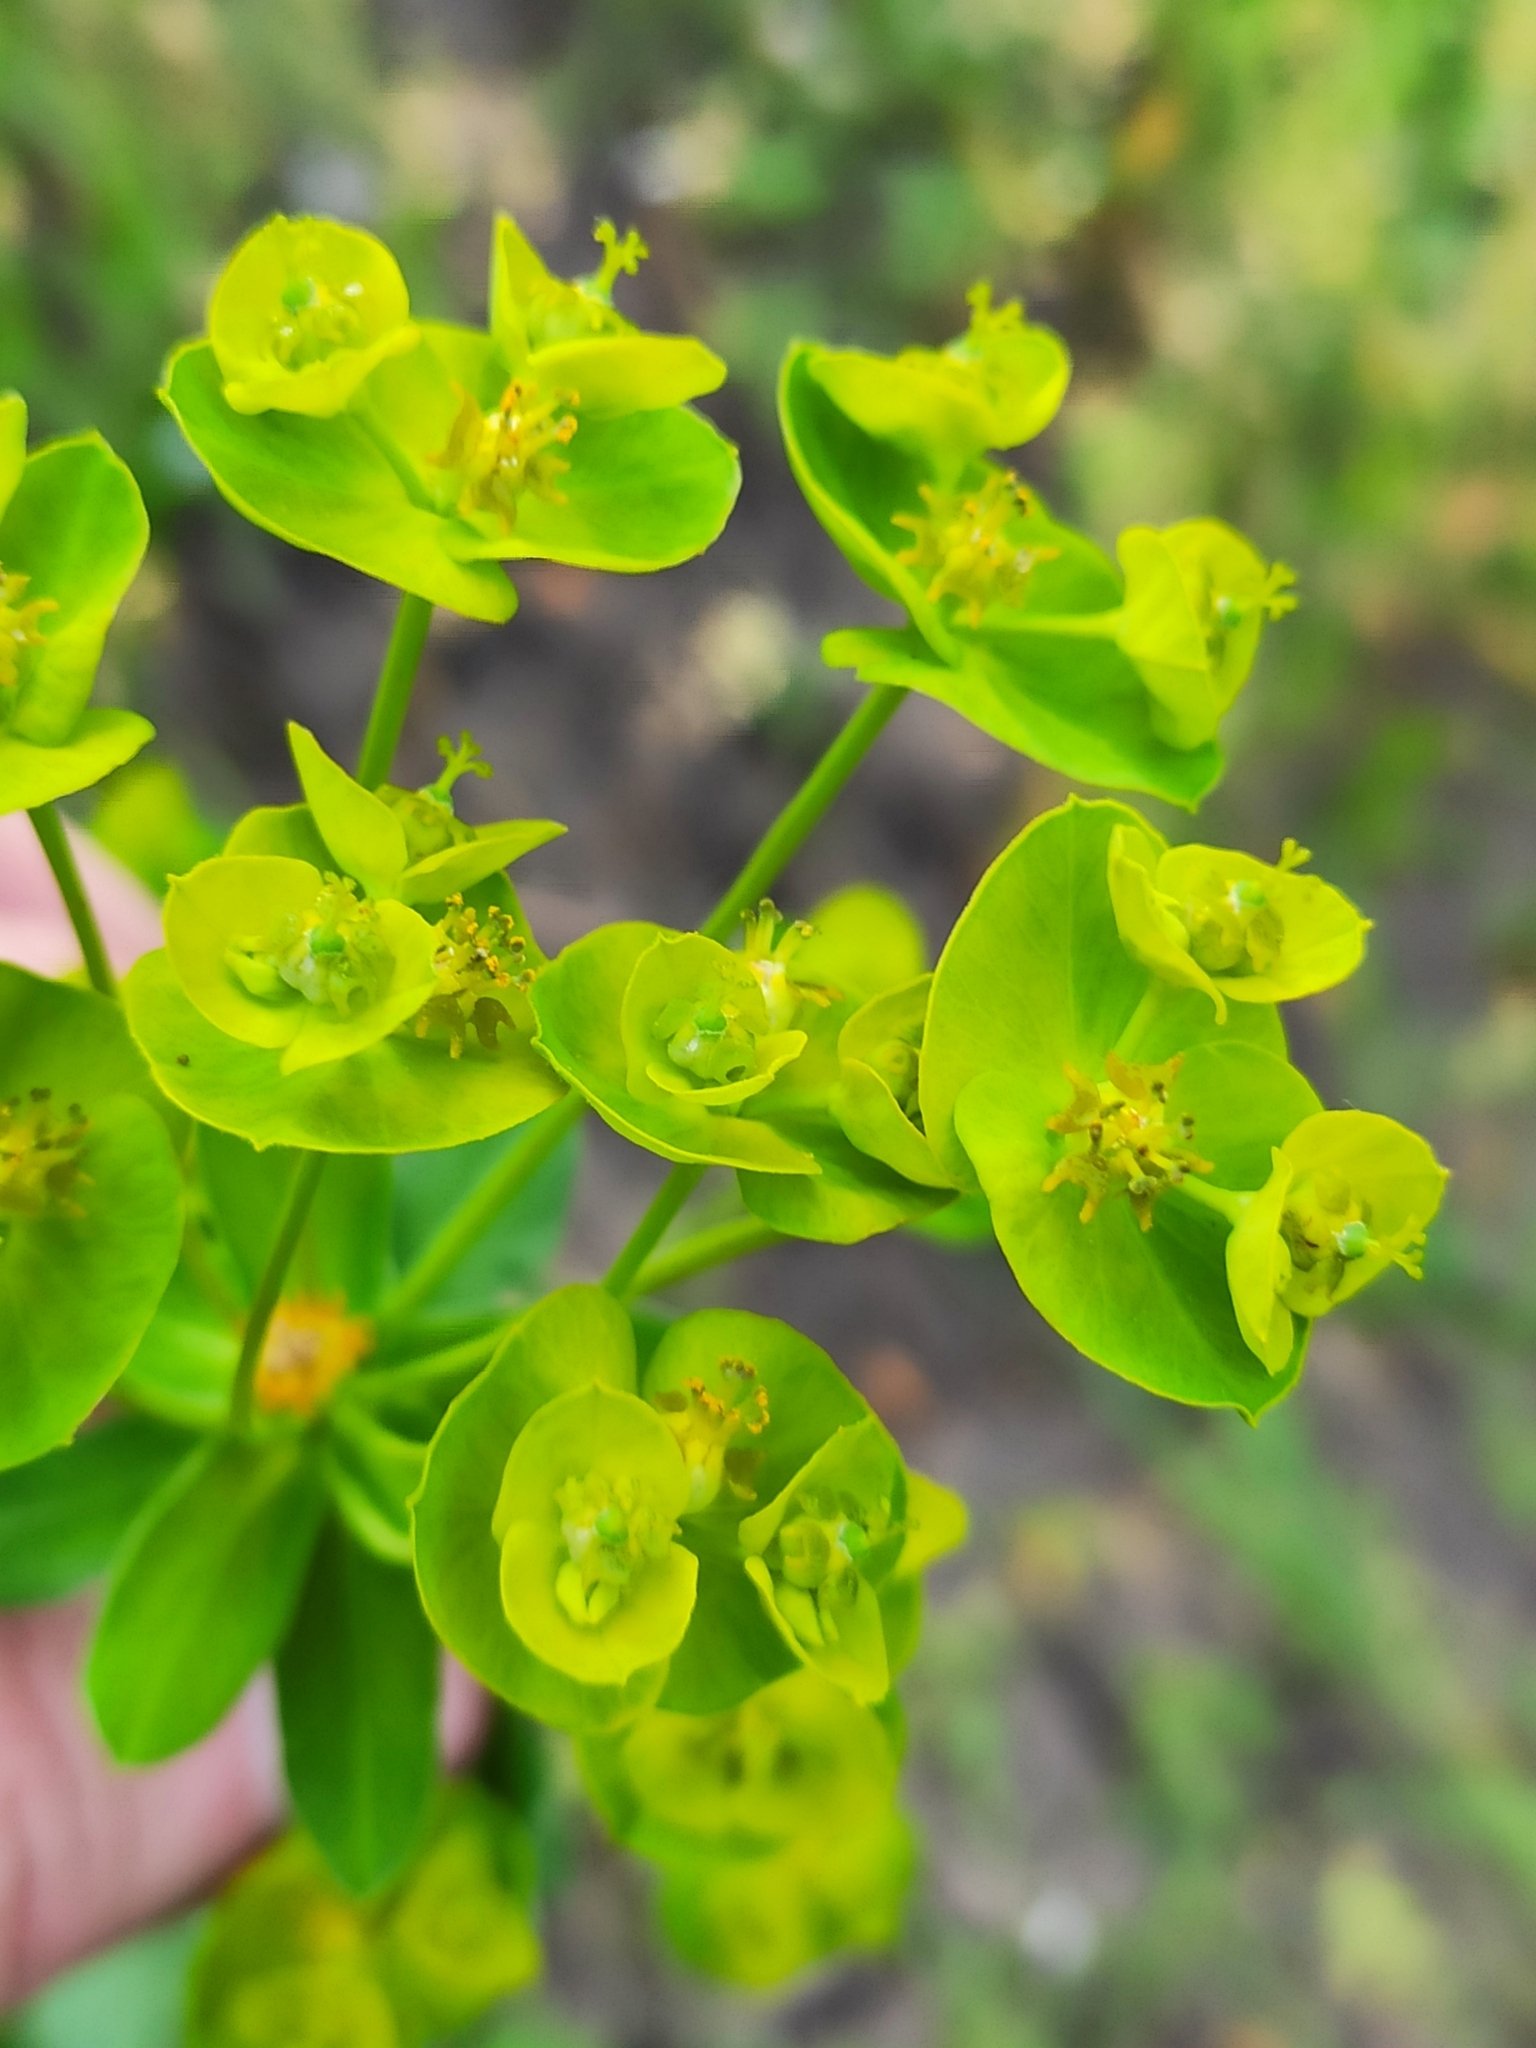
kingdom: Plantae
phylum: Tracheophyta
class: Magnoliopsida
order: Malpighiales
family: Euphorbiaceae
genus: Euphorbia
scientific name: Euphorbia virgata
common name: Leafy spurge
